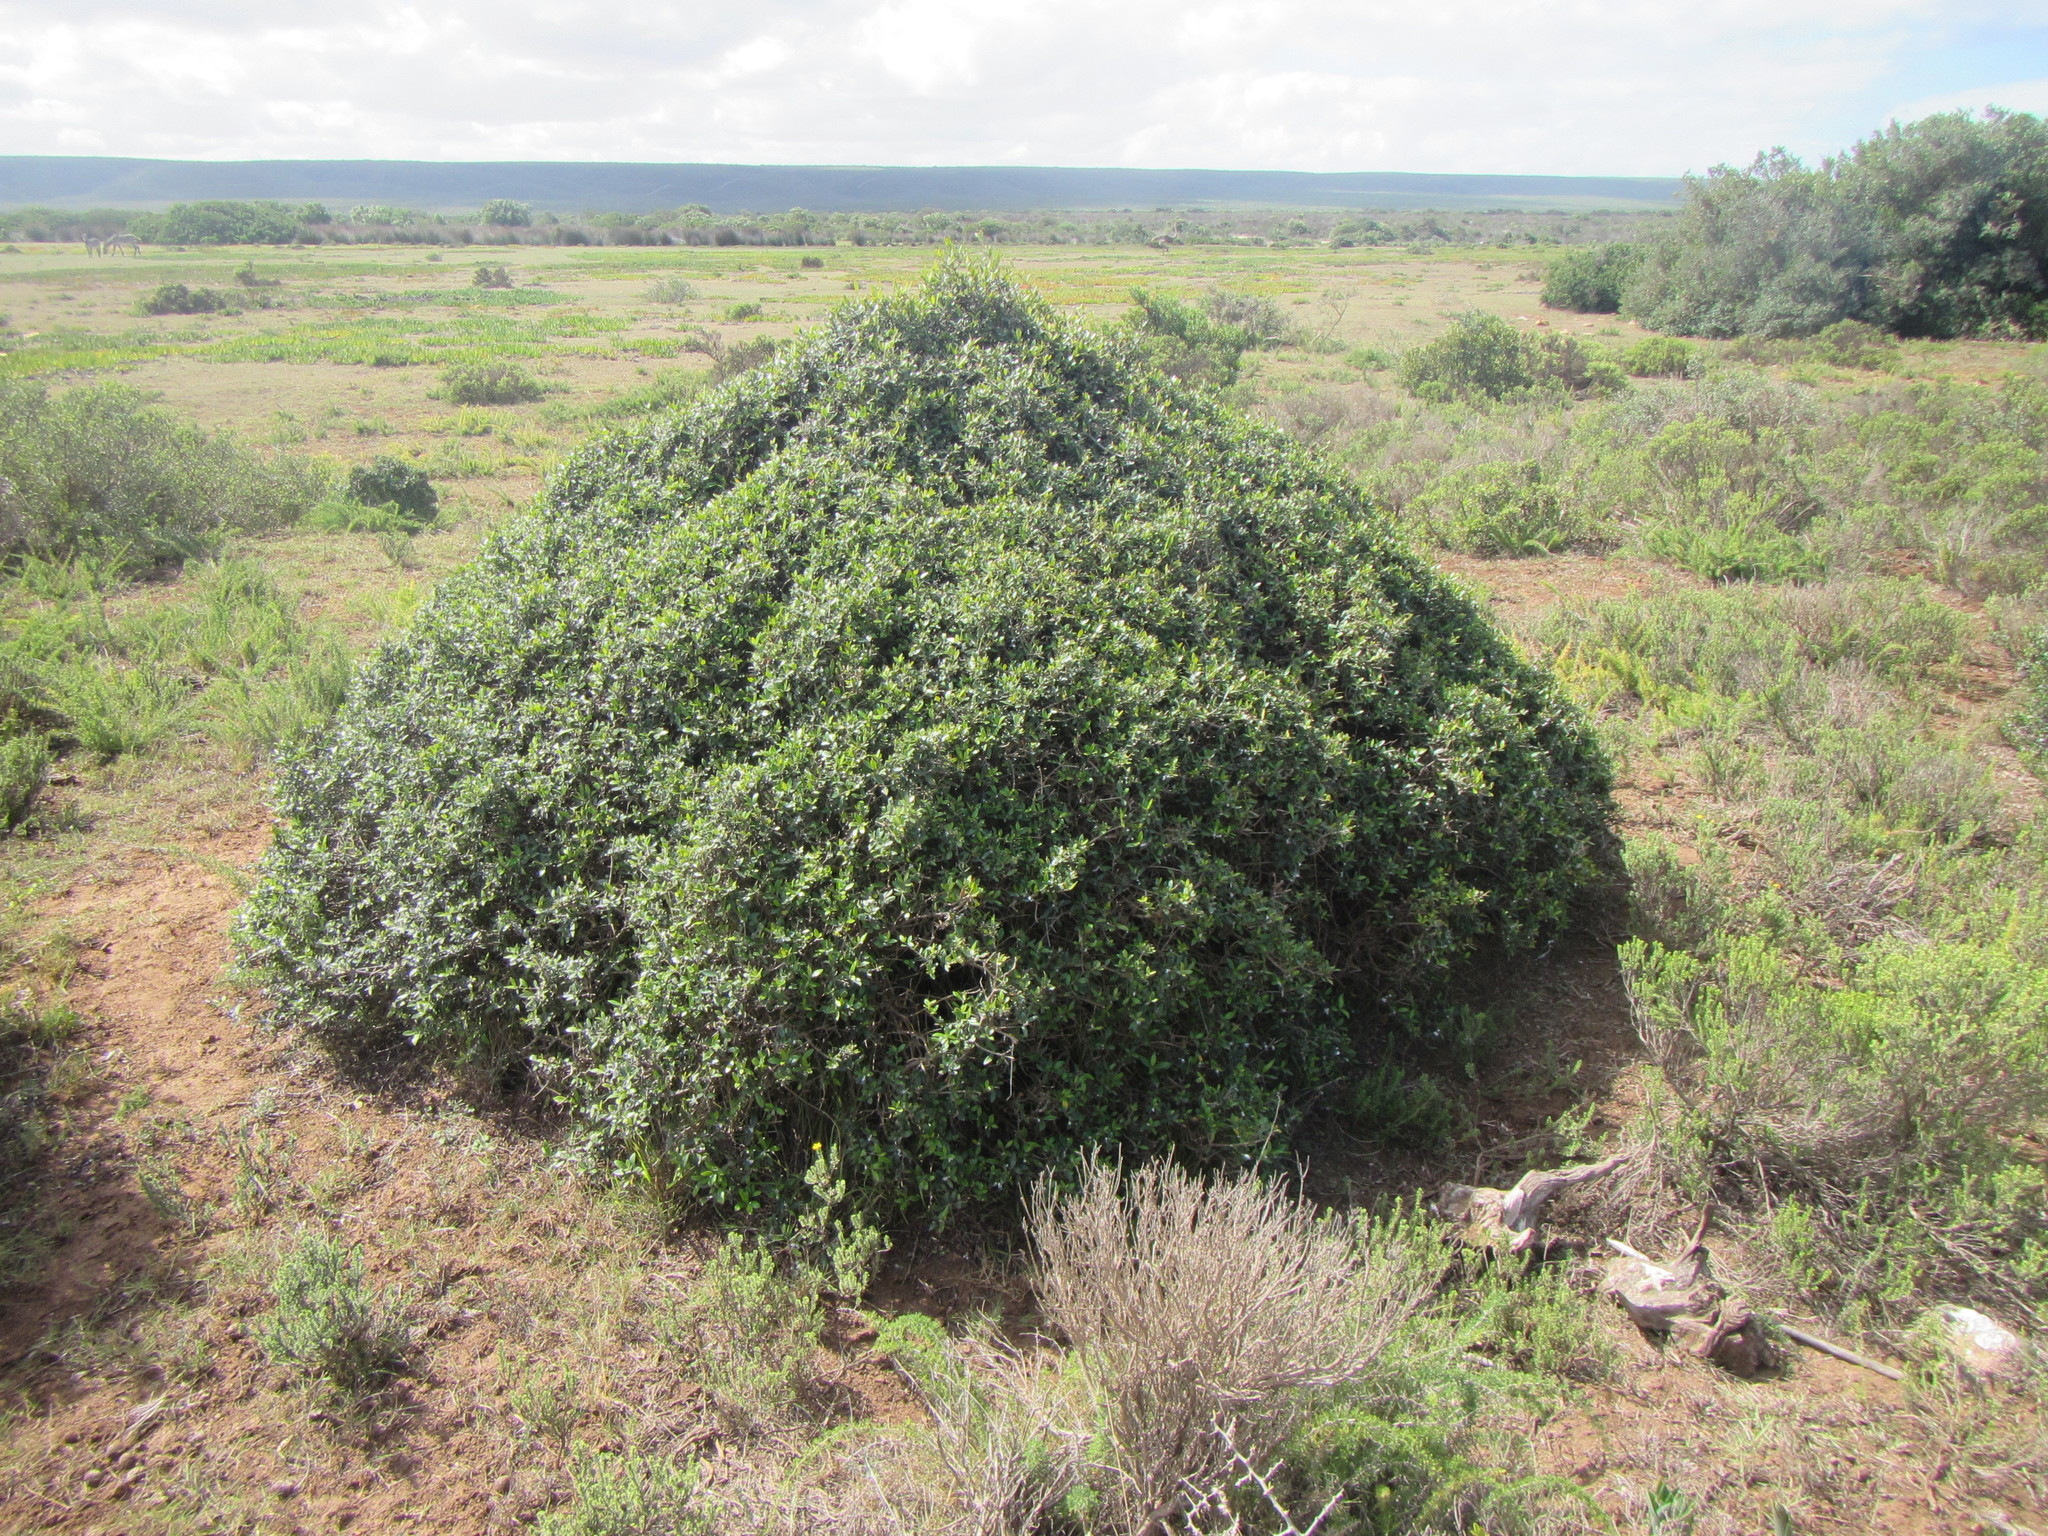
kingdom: Plantae
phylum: Tracheophyta
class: Magnoliopsida
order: Lamiales
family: Oleaceae
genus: Olea
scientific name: Olea europaea
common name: Olive
